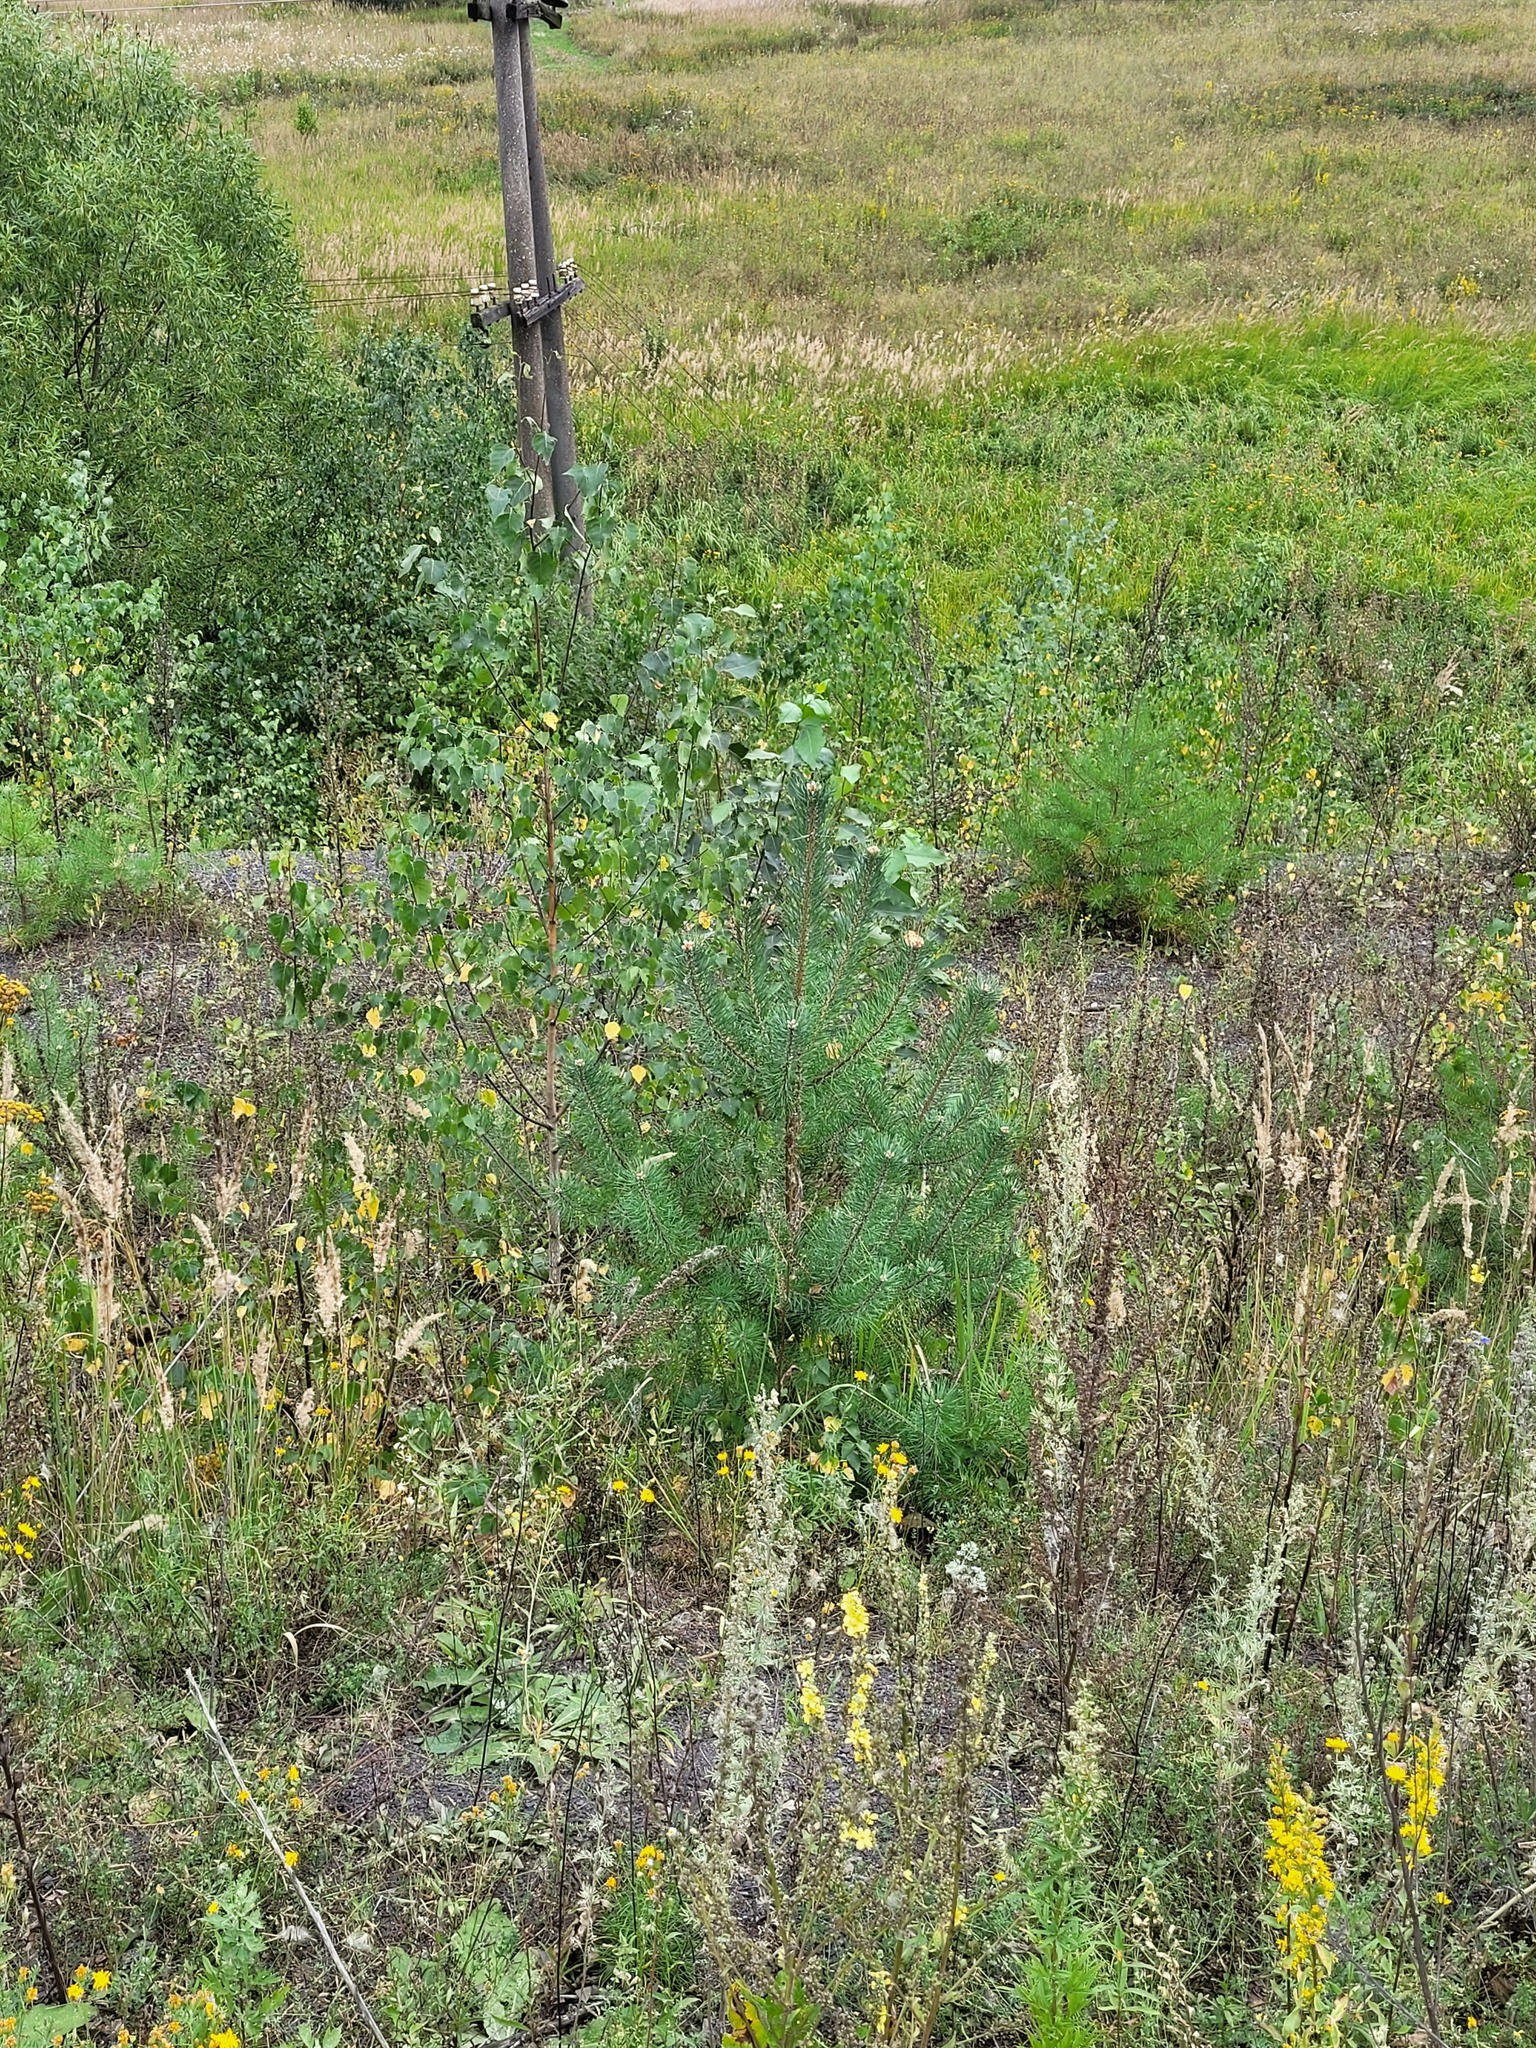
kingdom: Plantae
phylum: Tracheophyta
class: Pinopsida
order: Pinales
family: Pinaceae
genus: Pinus
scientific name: Pinus sylvestris
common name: Scots pine
